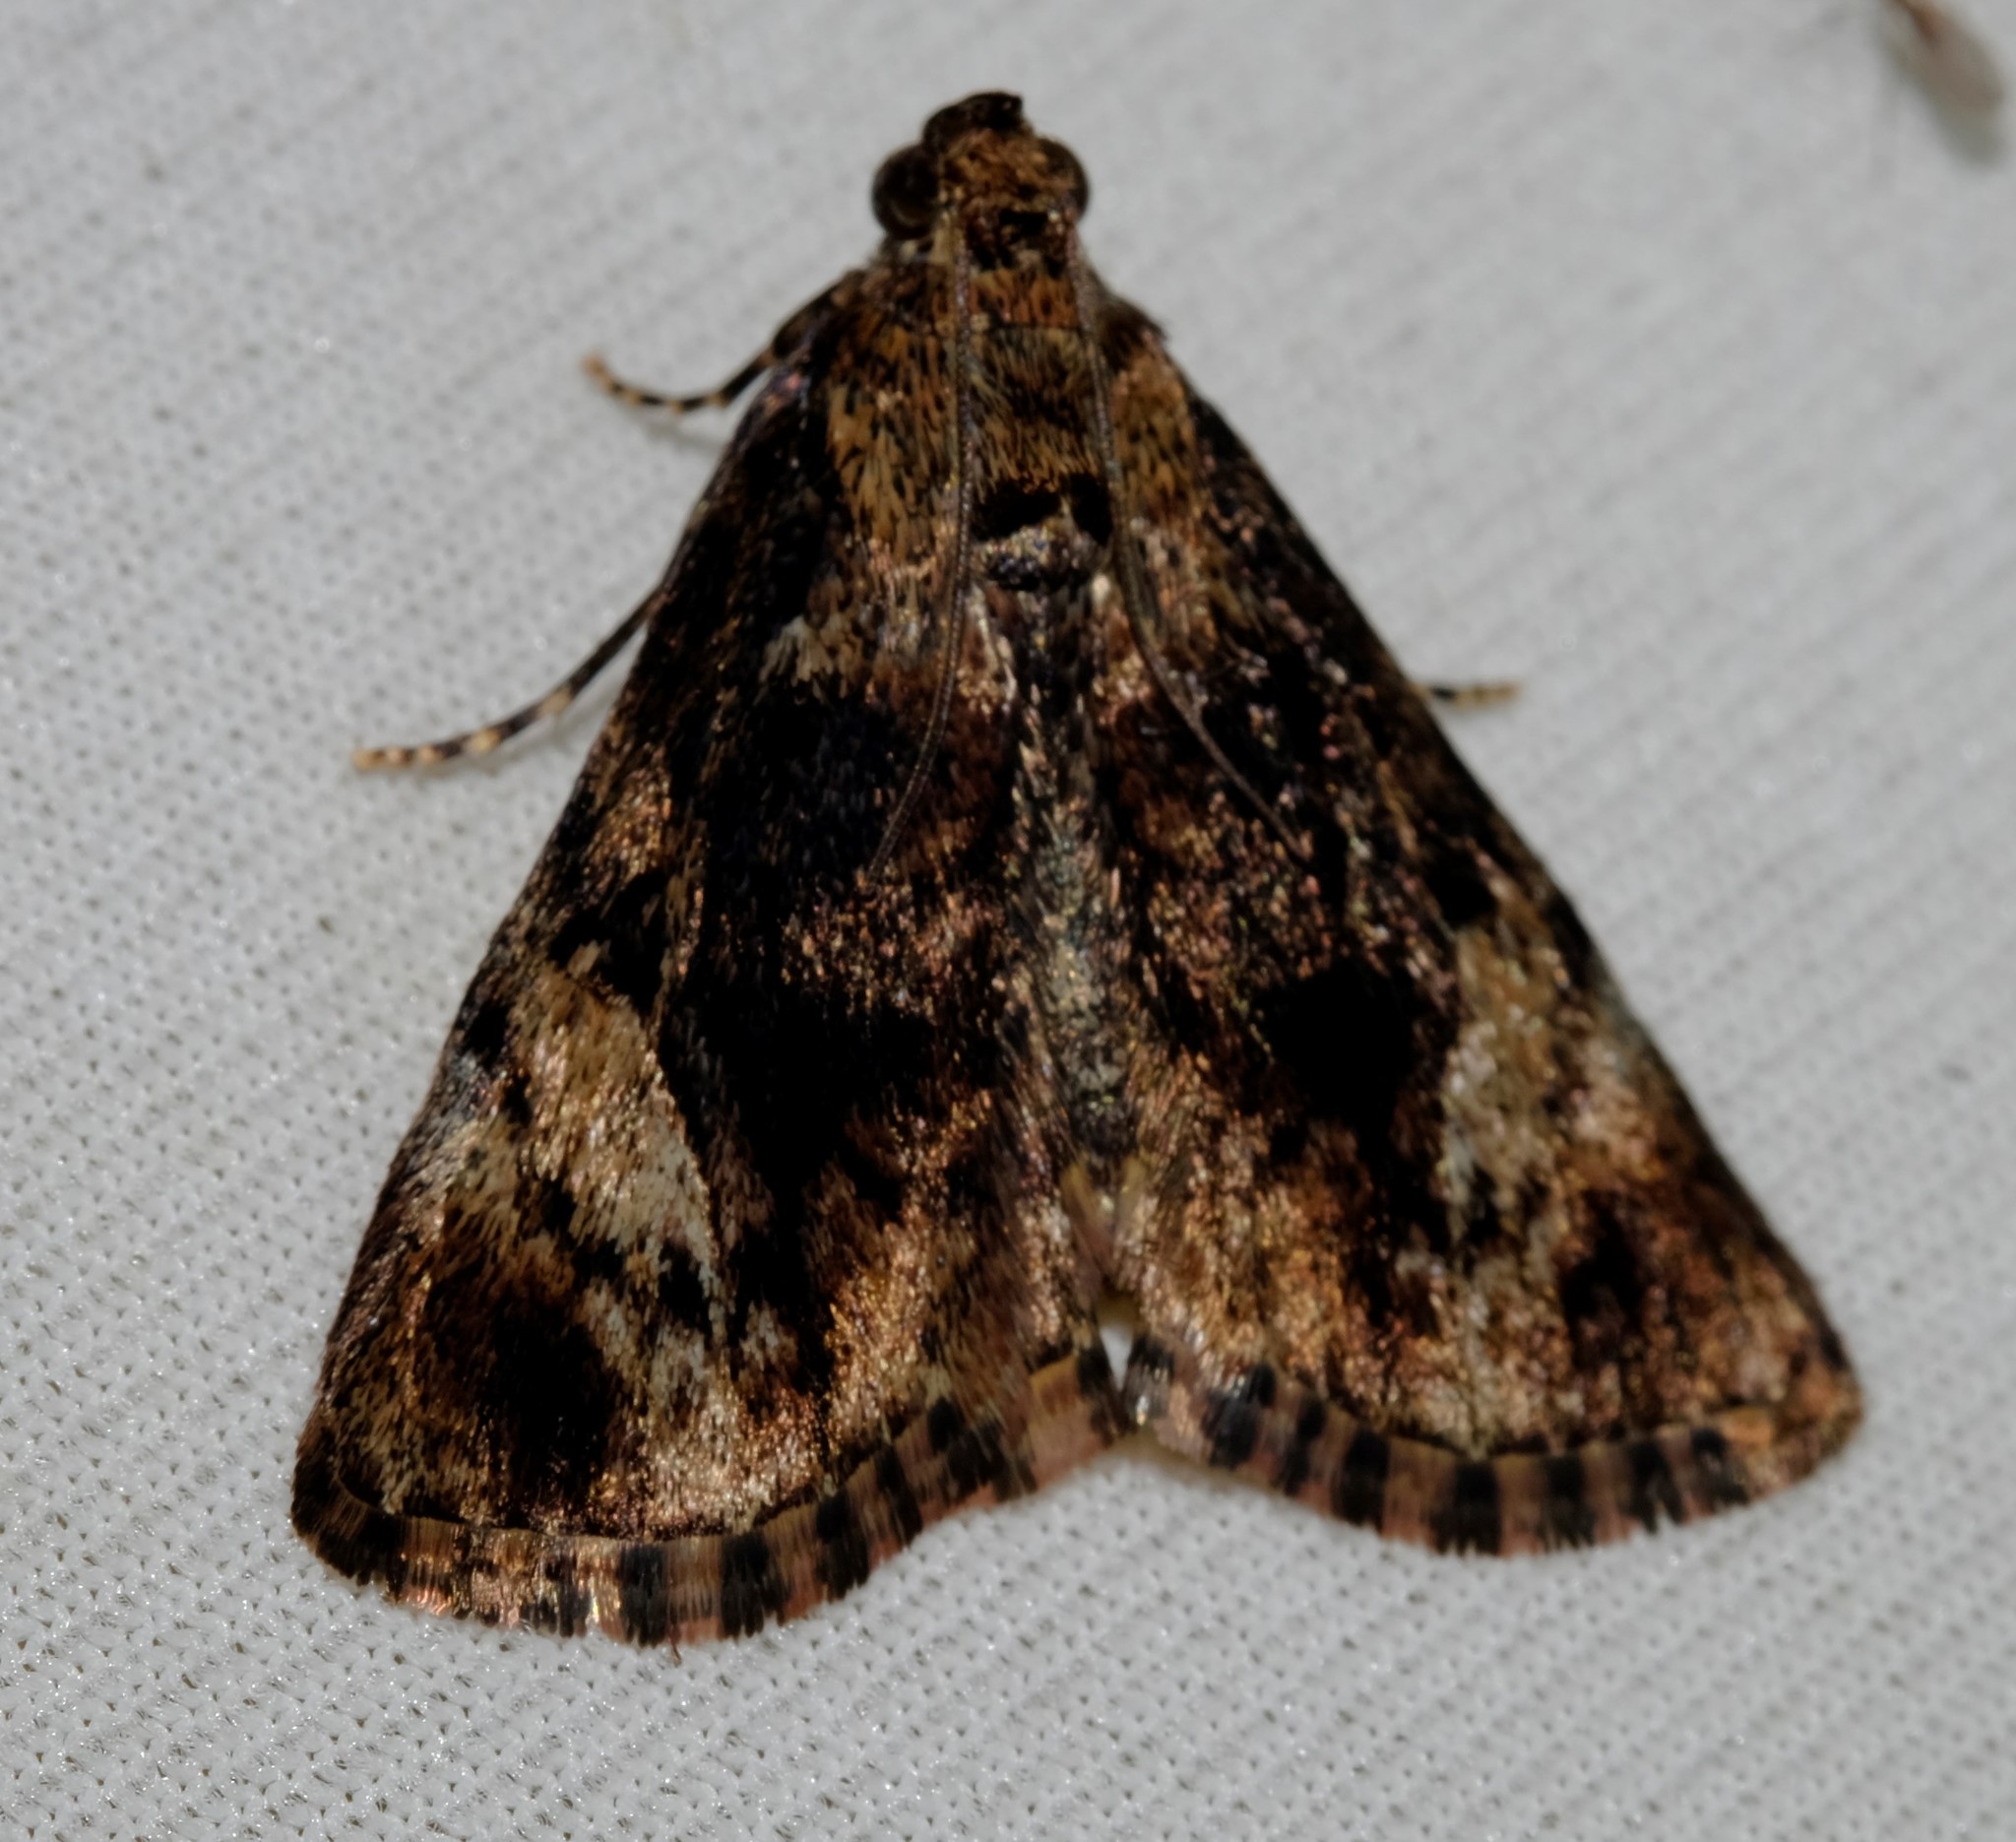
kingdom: Animalia
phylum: Arthropoda
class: Insecta
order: Lepidoptera
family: Pyralidae
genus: Salma
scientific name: Salma cholica
